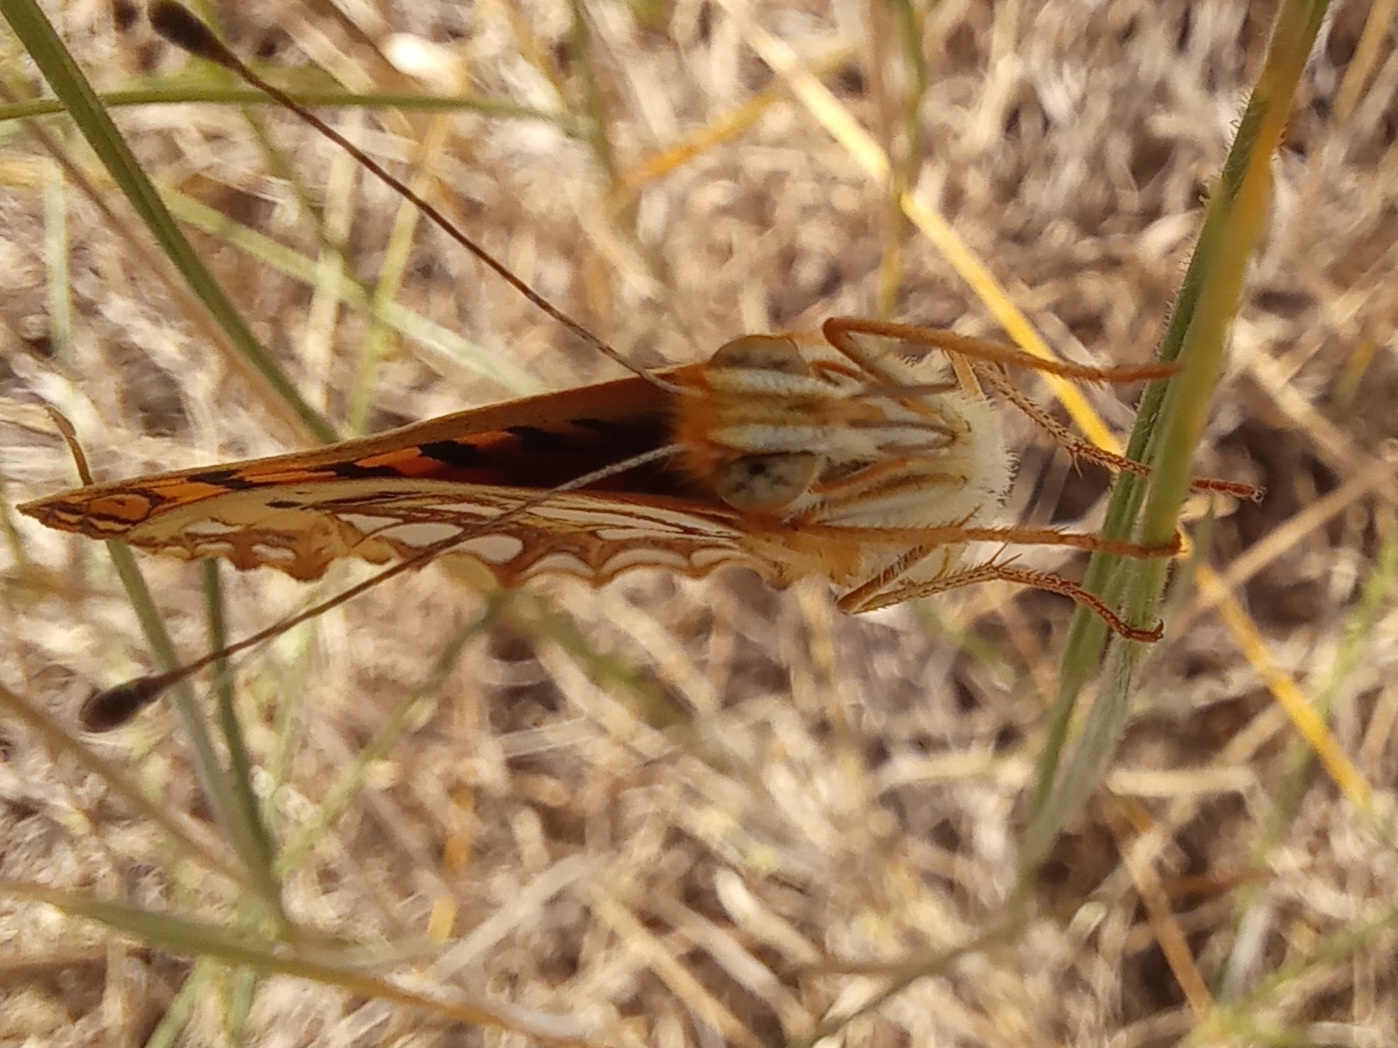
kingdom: Animalia
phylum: Arthropoda
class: Insecta
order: Lepidoptera
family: Nymphalidae
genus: Issoria
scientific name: Issoria lathonia
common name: Queen of spain fritillary
